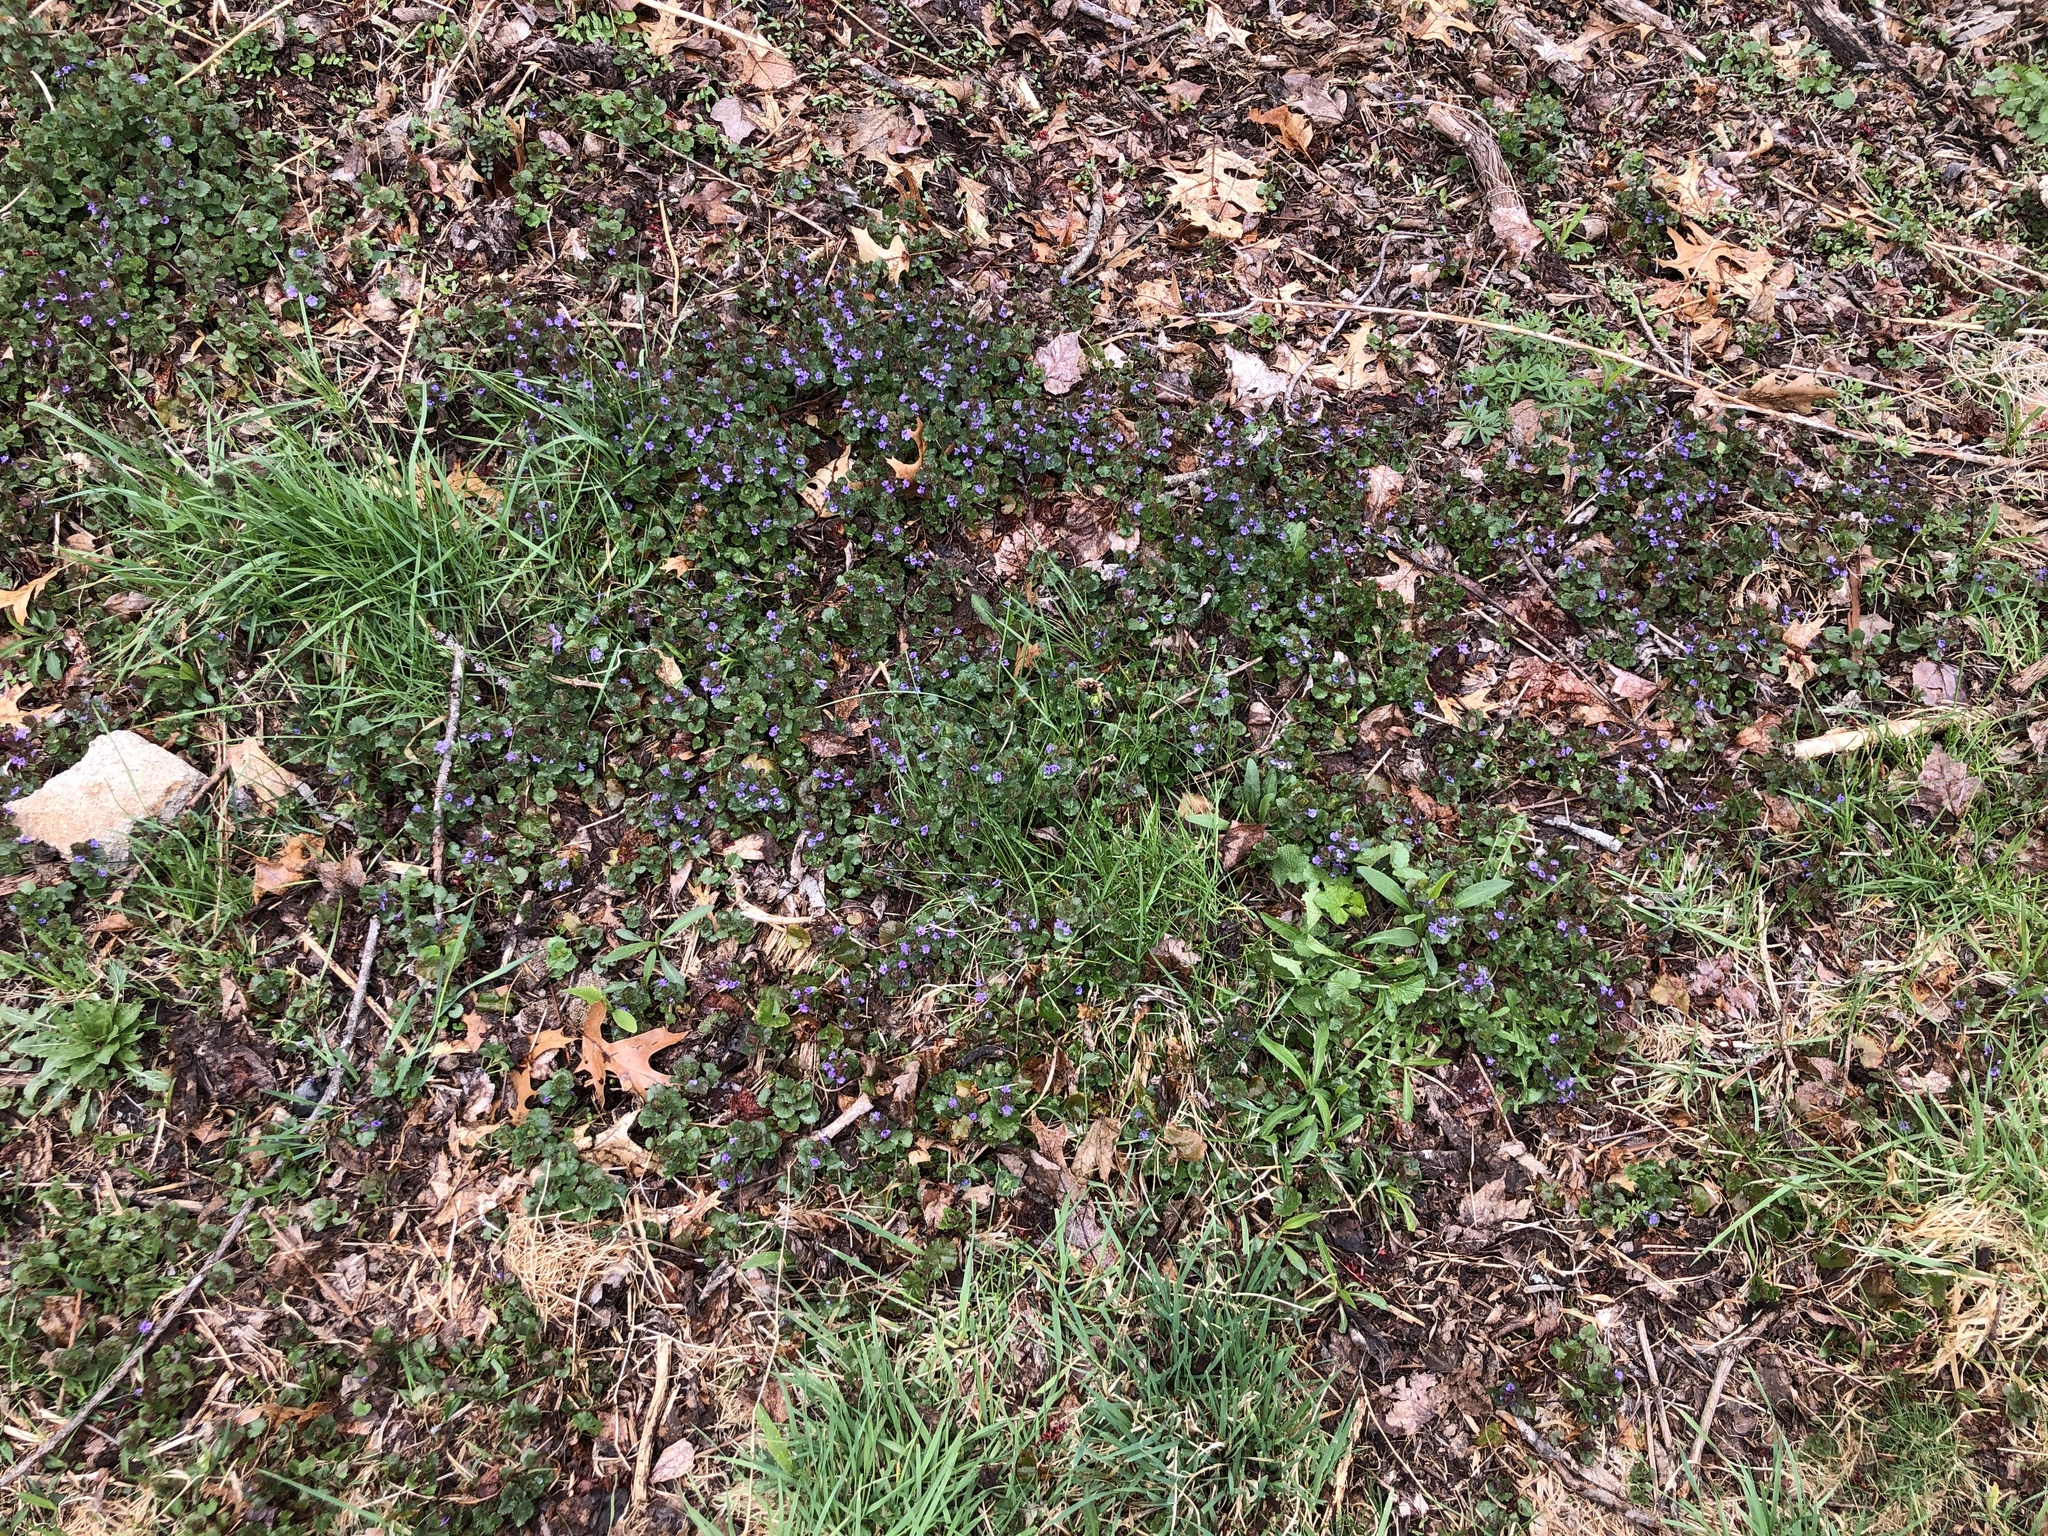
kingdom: Plantae
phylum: Tracheophyta
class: Magnoliopsida
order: Lamiales
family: Lamiaceae
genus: Glechoma
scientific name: Glechoma hederacea
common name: Ground ivy
